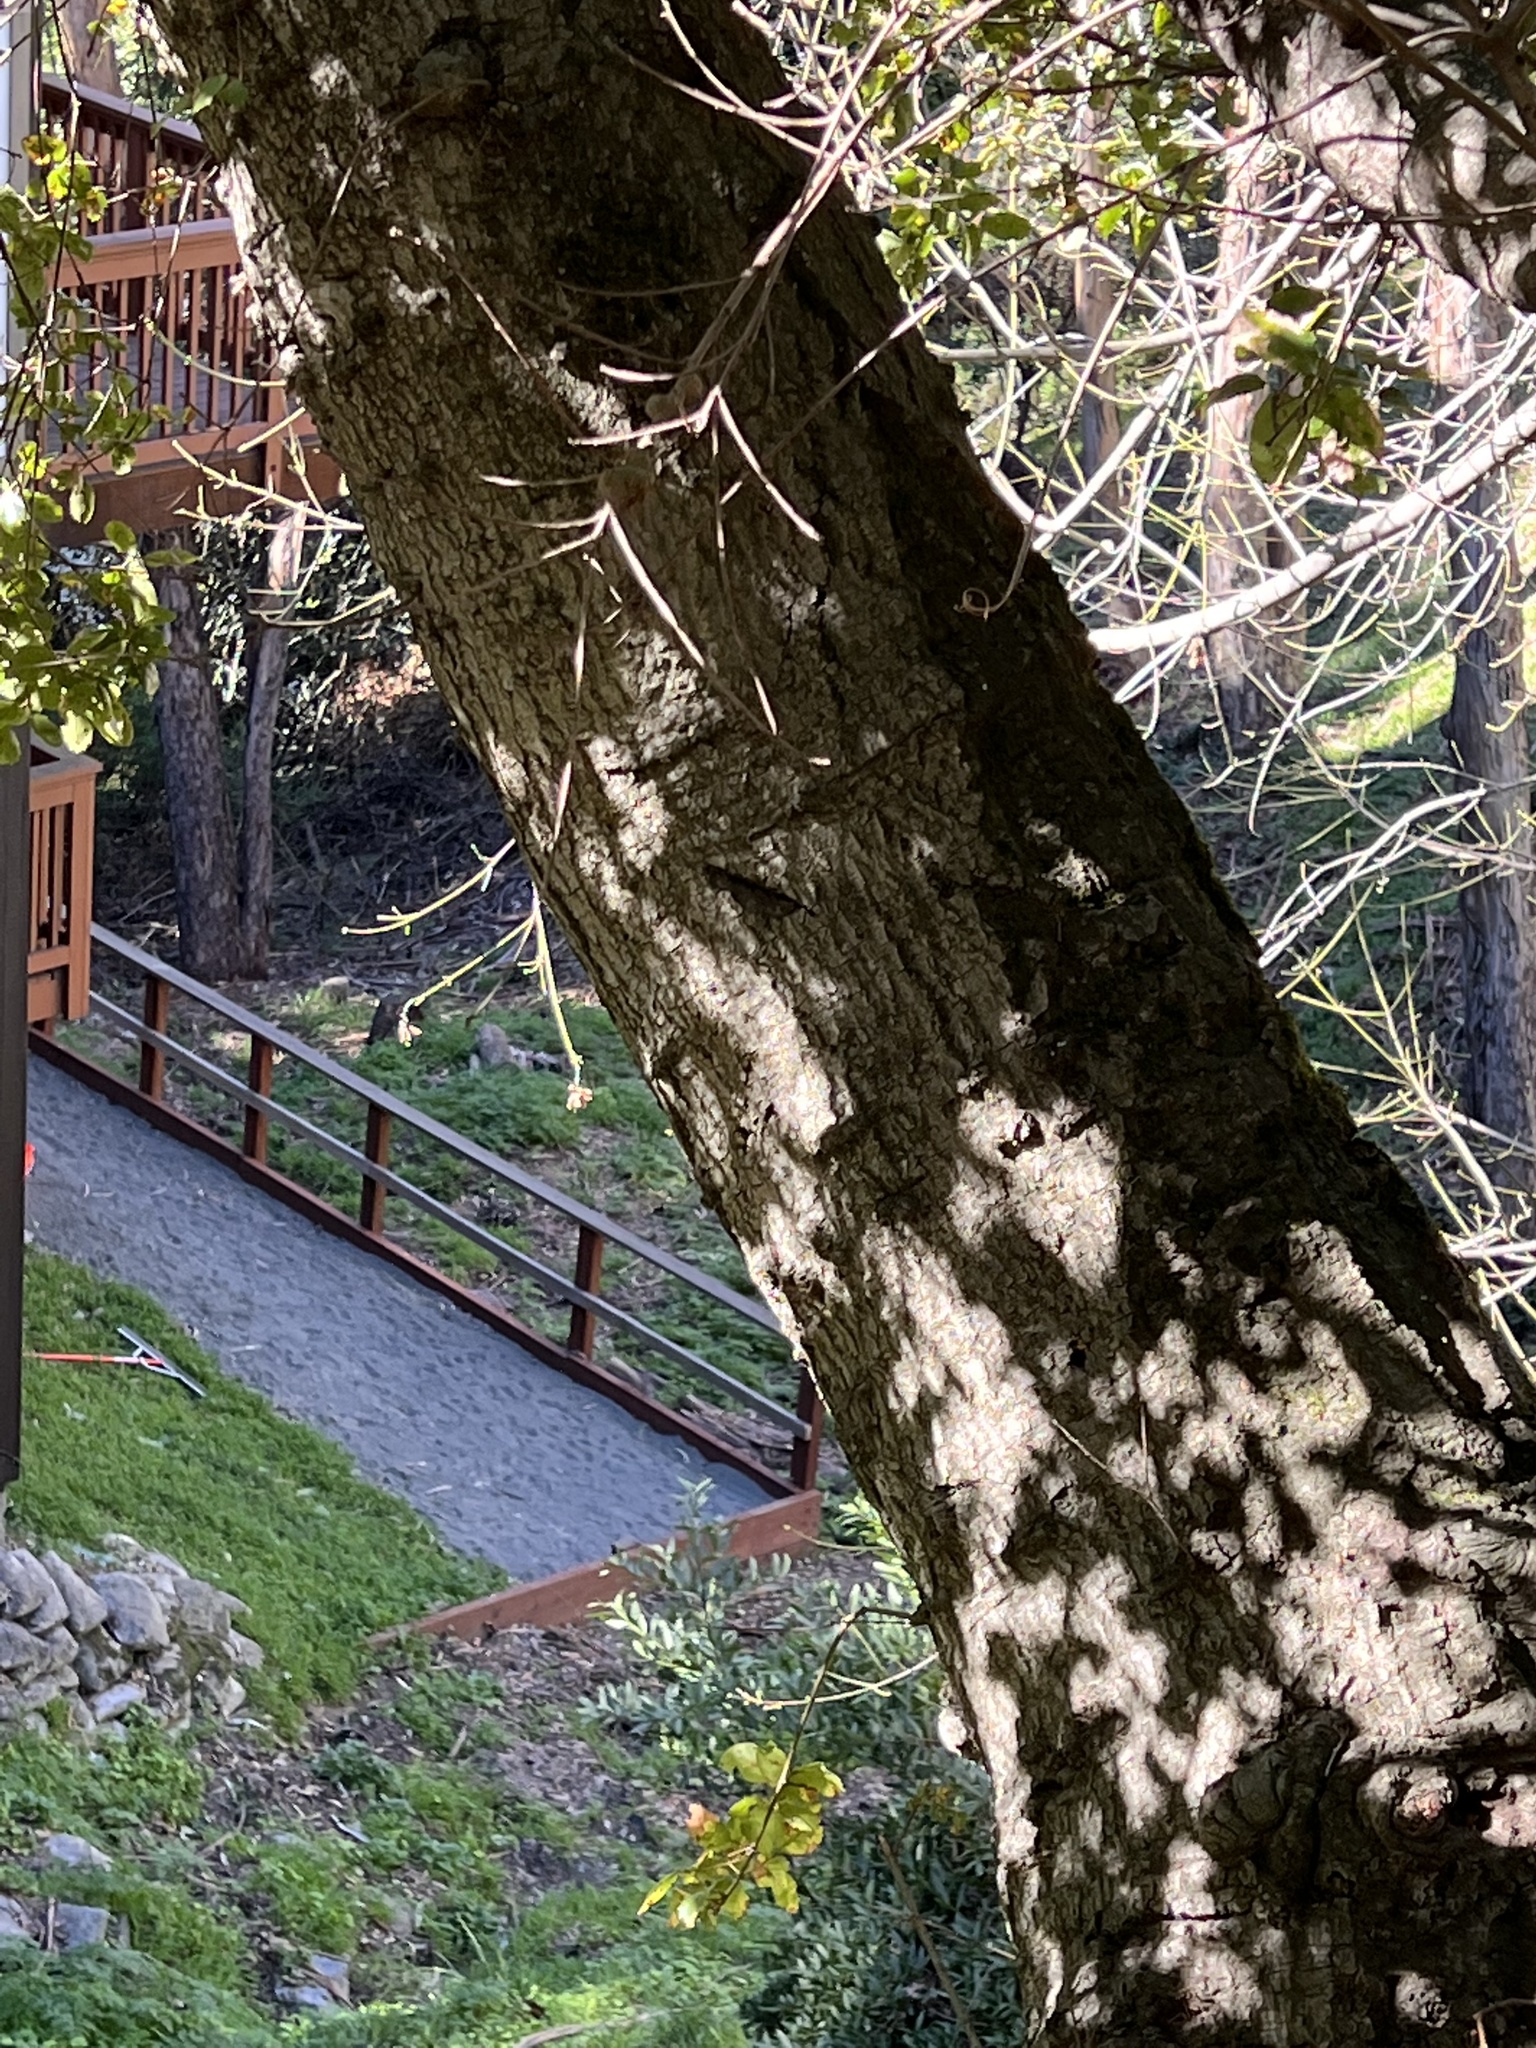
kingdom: Plantae
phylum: Tracheophyta
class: Magnoliopsida
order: Fagales
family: Fagaceae
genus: Quercus
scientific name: Quercus agrifolia
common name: California live oak
